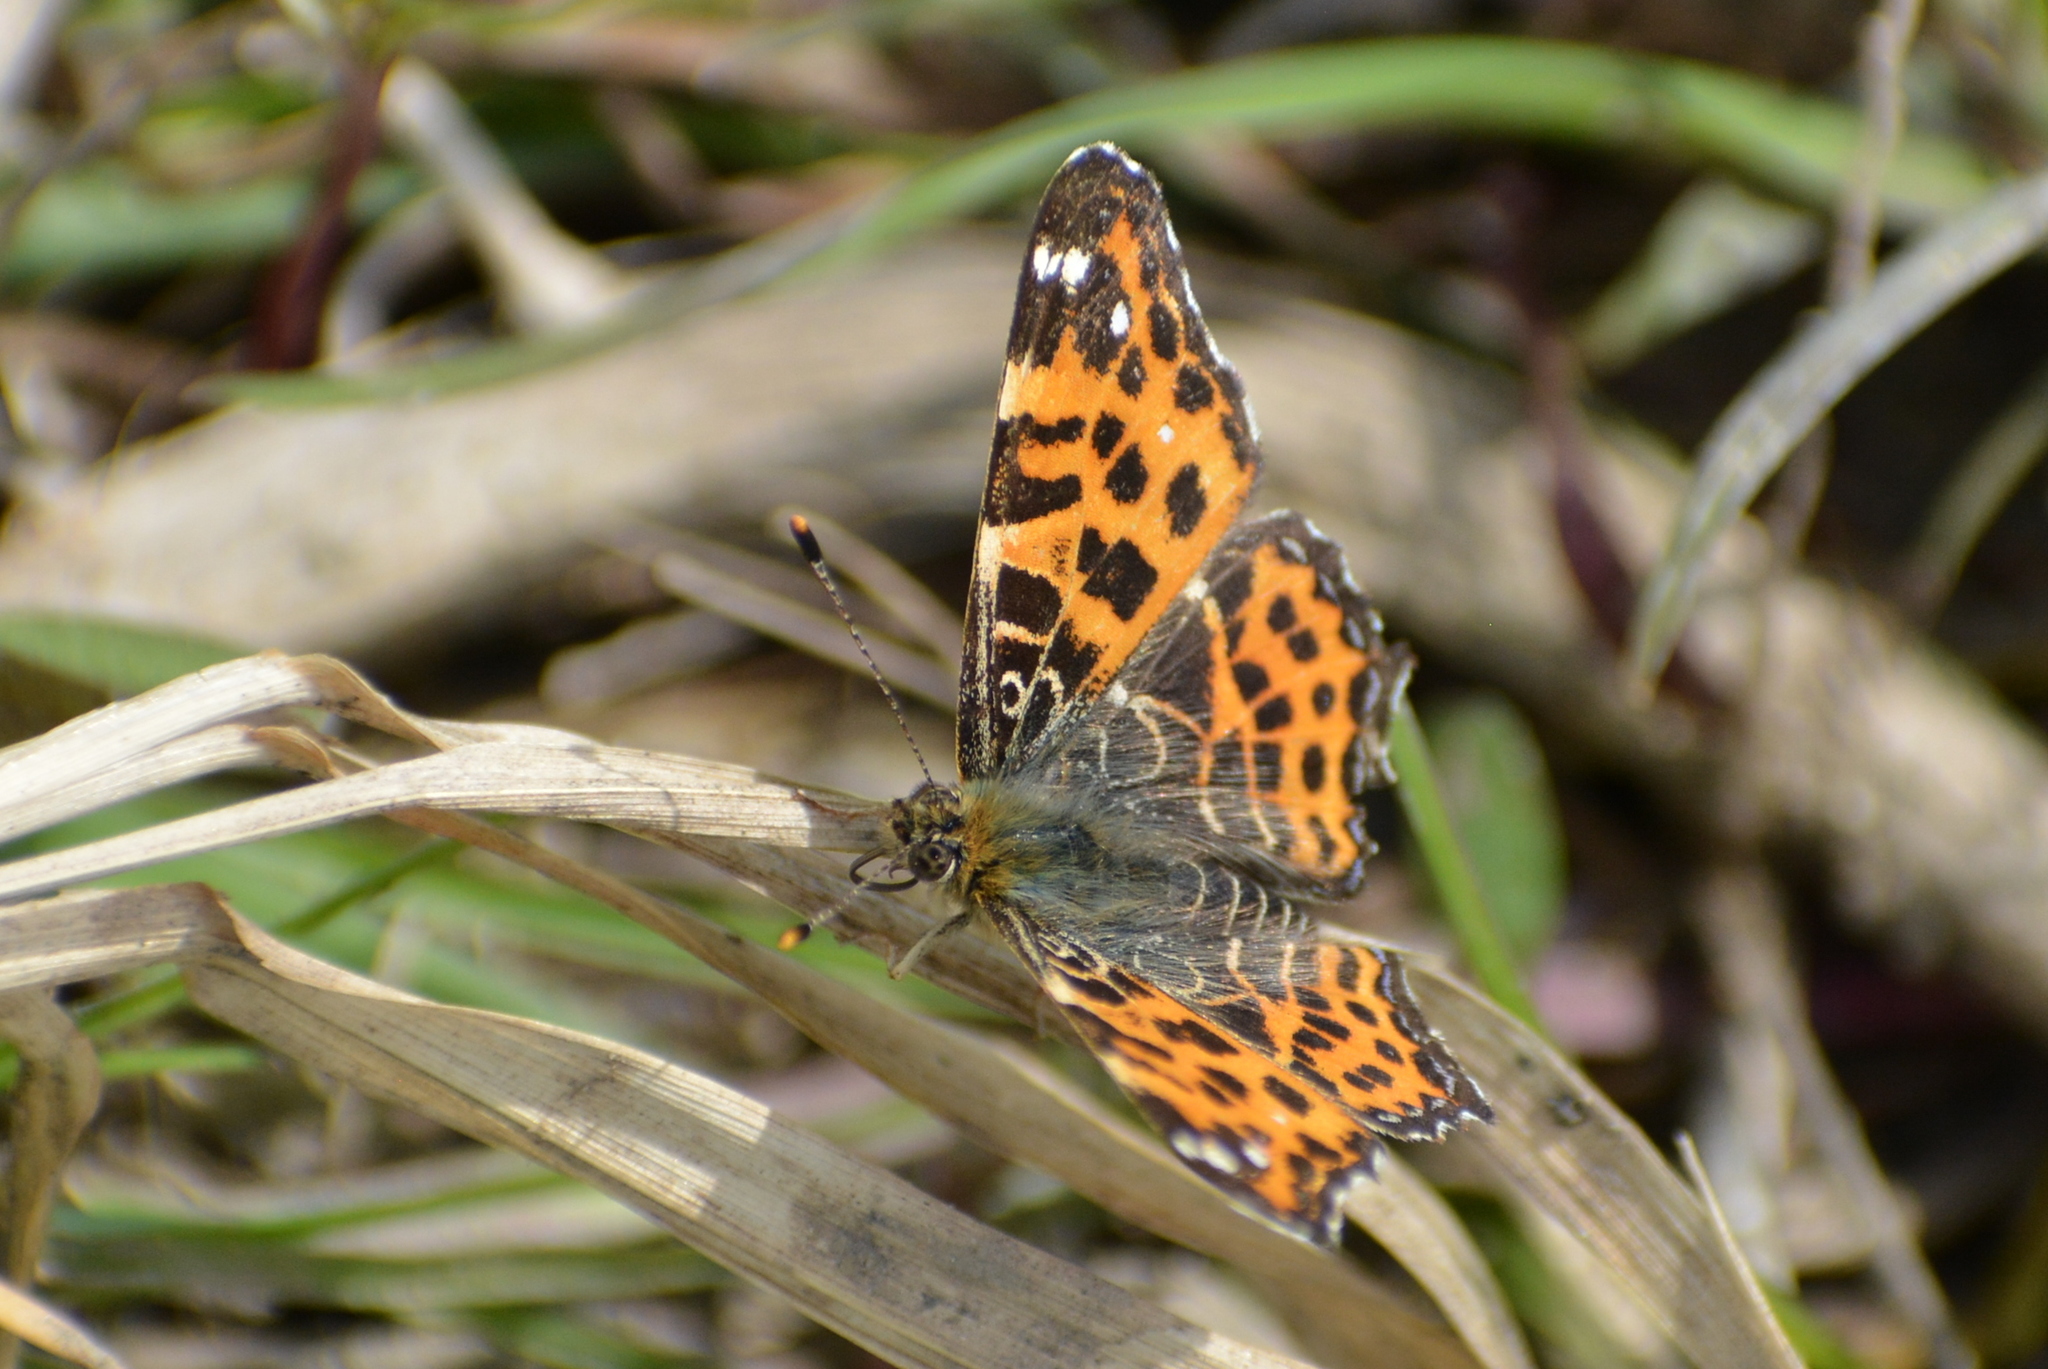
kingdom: Animalia
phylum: Arthropoda
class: Insecta
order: Lepidoptera
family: Nymphalidae
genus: Araschnia
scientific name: Araschnia levana
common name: Map butterfly
